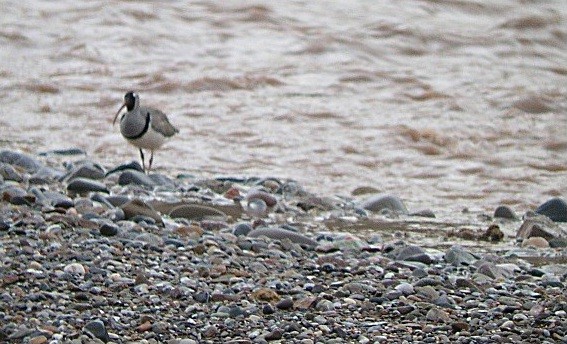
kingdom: Animalia
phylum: Chordata
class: Aves
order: Charadriiformes
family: Ibidorhynchidae
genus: Ibidorhyncha
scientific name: Ibidorhyncha struthersii
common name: Ibisbill
